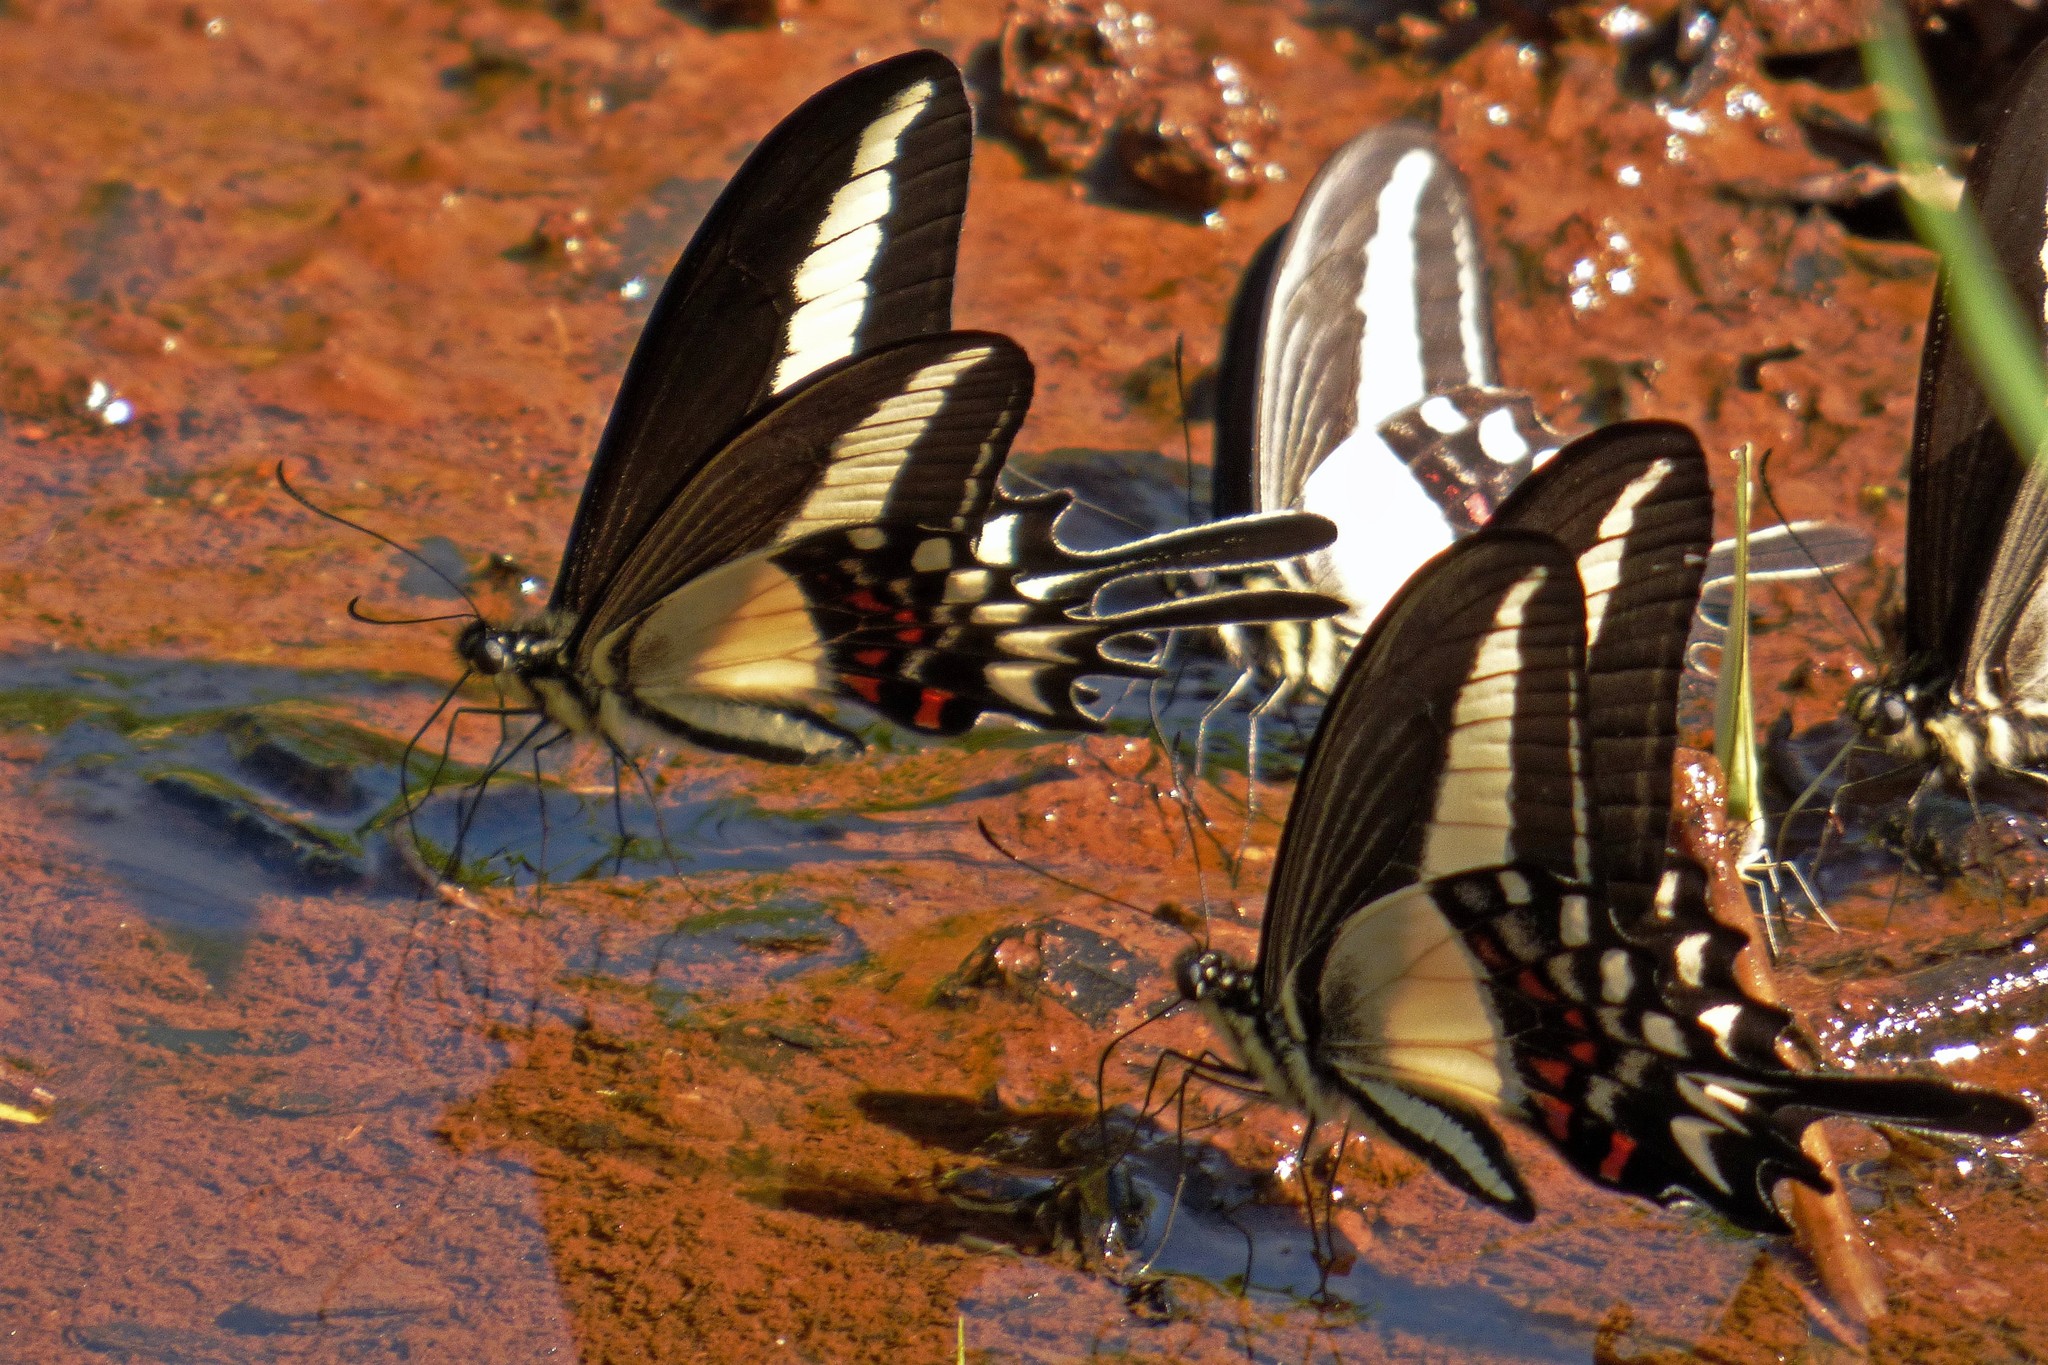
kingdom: Animalia
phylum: Arthropoda
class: Insecta
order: Lepidoptera
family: Papilionidae
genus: Heraclides
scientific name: Heraclides hectorides
